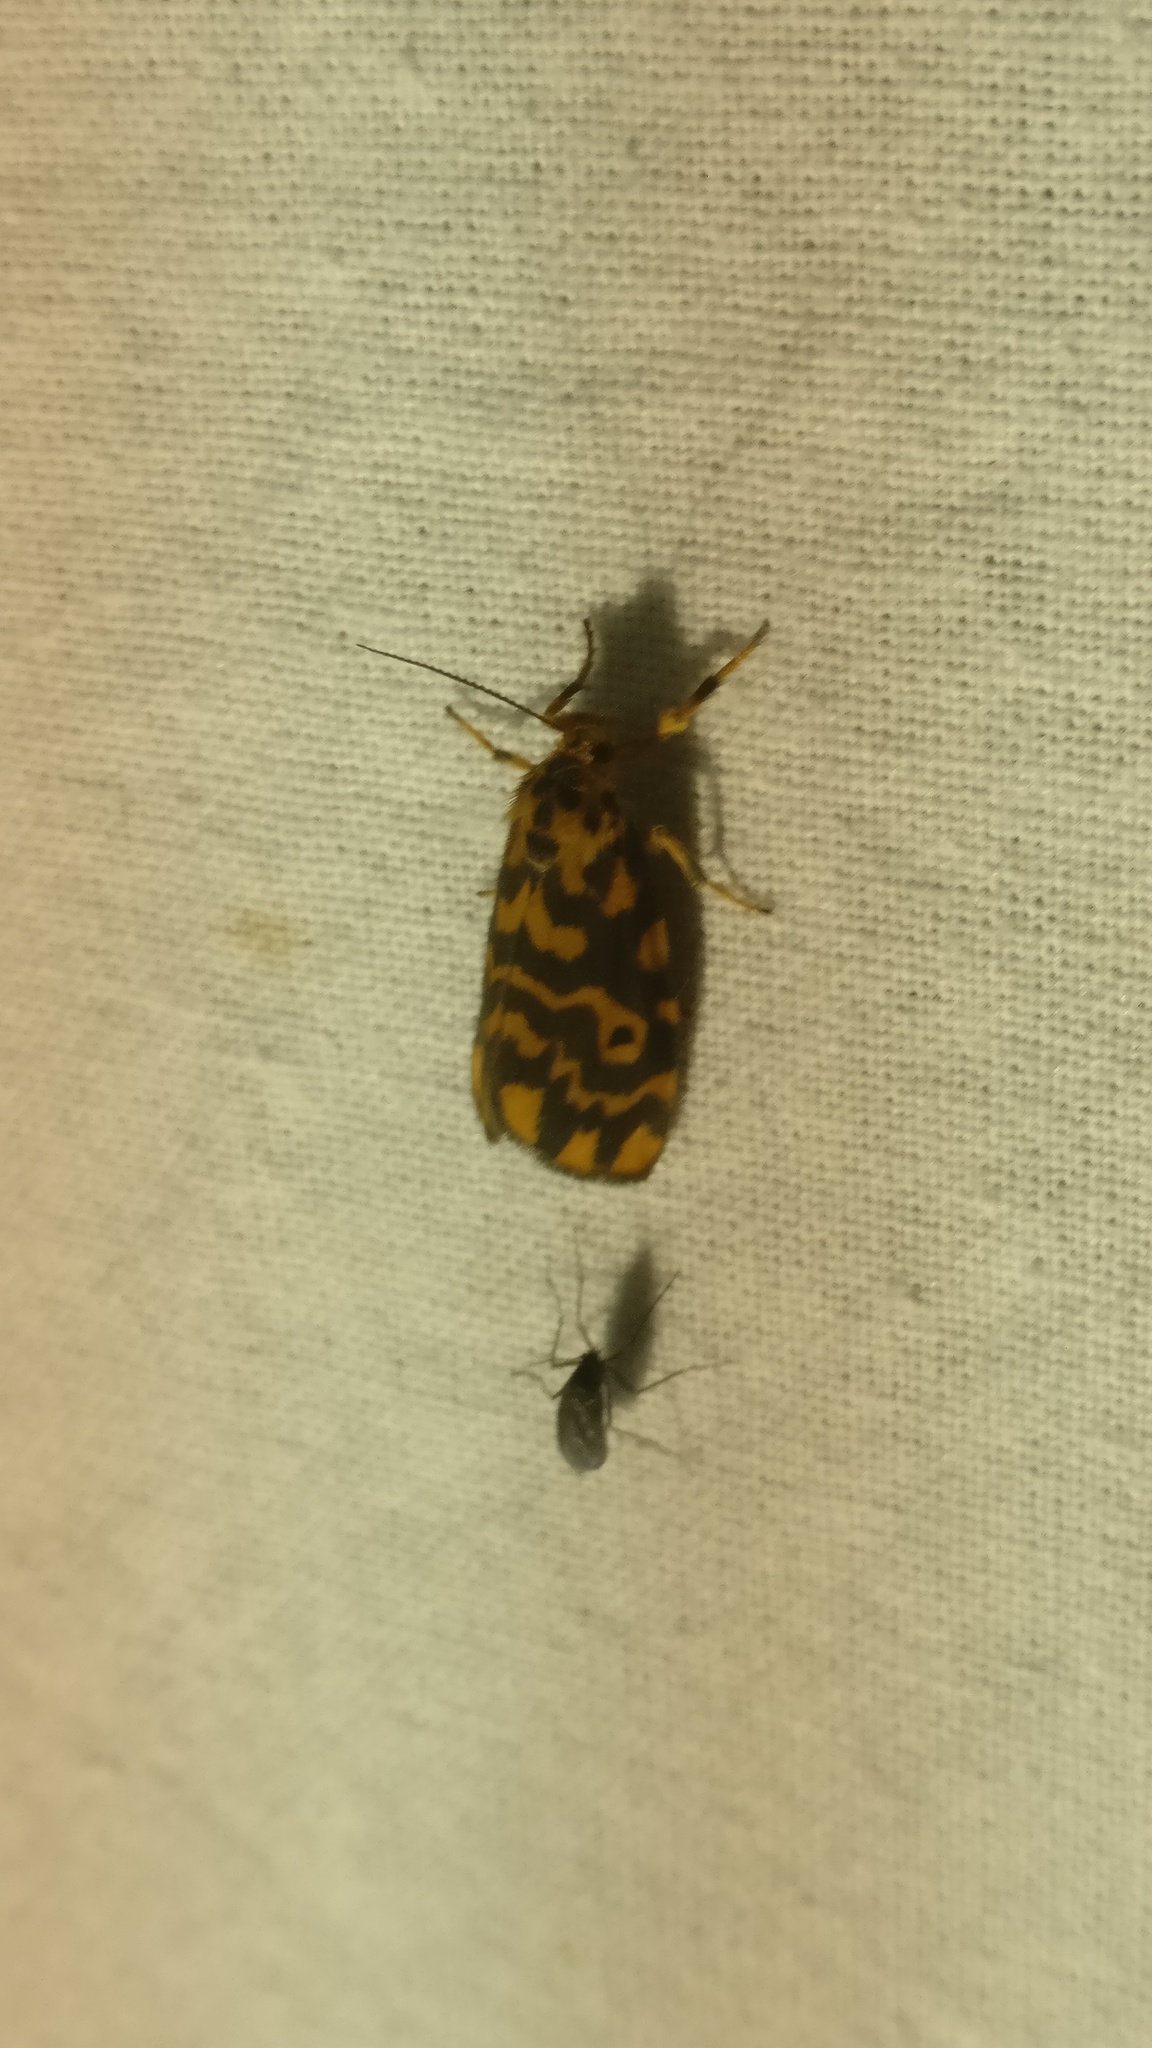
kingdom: Animalia
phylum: Arthropoda
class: Insecta
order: Lepidoptera
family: Erebidae
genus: Nepita
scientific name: Nepita conferta
